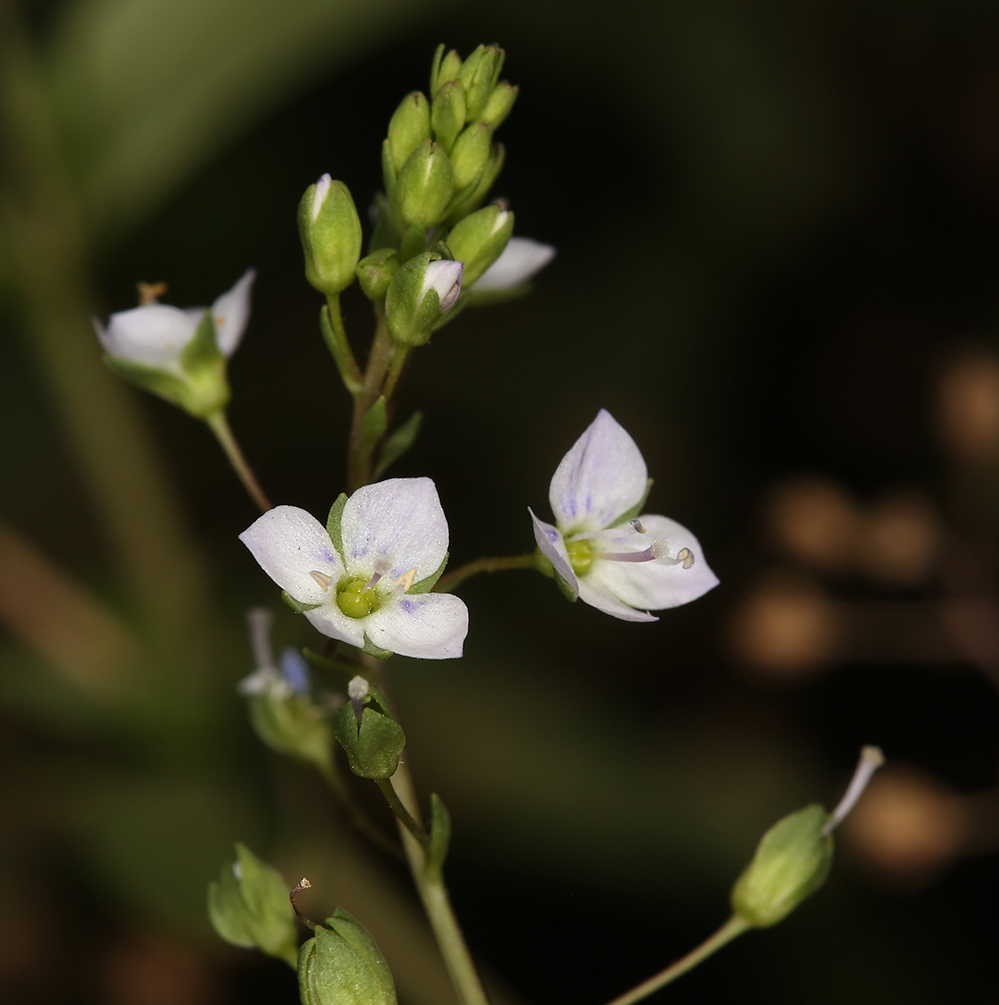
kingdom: Plantae
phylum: Tracheophyta
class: Magnoliopsida
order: Lamiales
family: Plantaginaceae
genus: Veronica
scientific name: Veronica anagallis-aquatica
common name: Water speedwell
